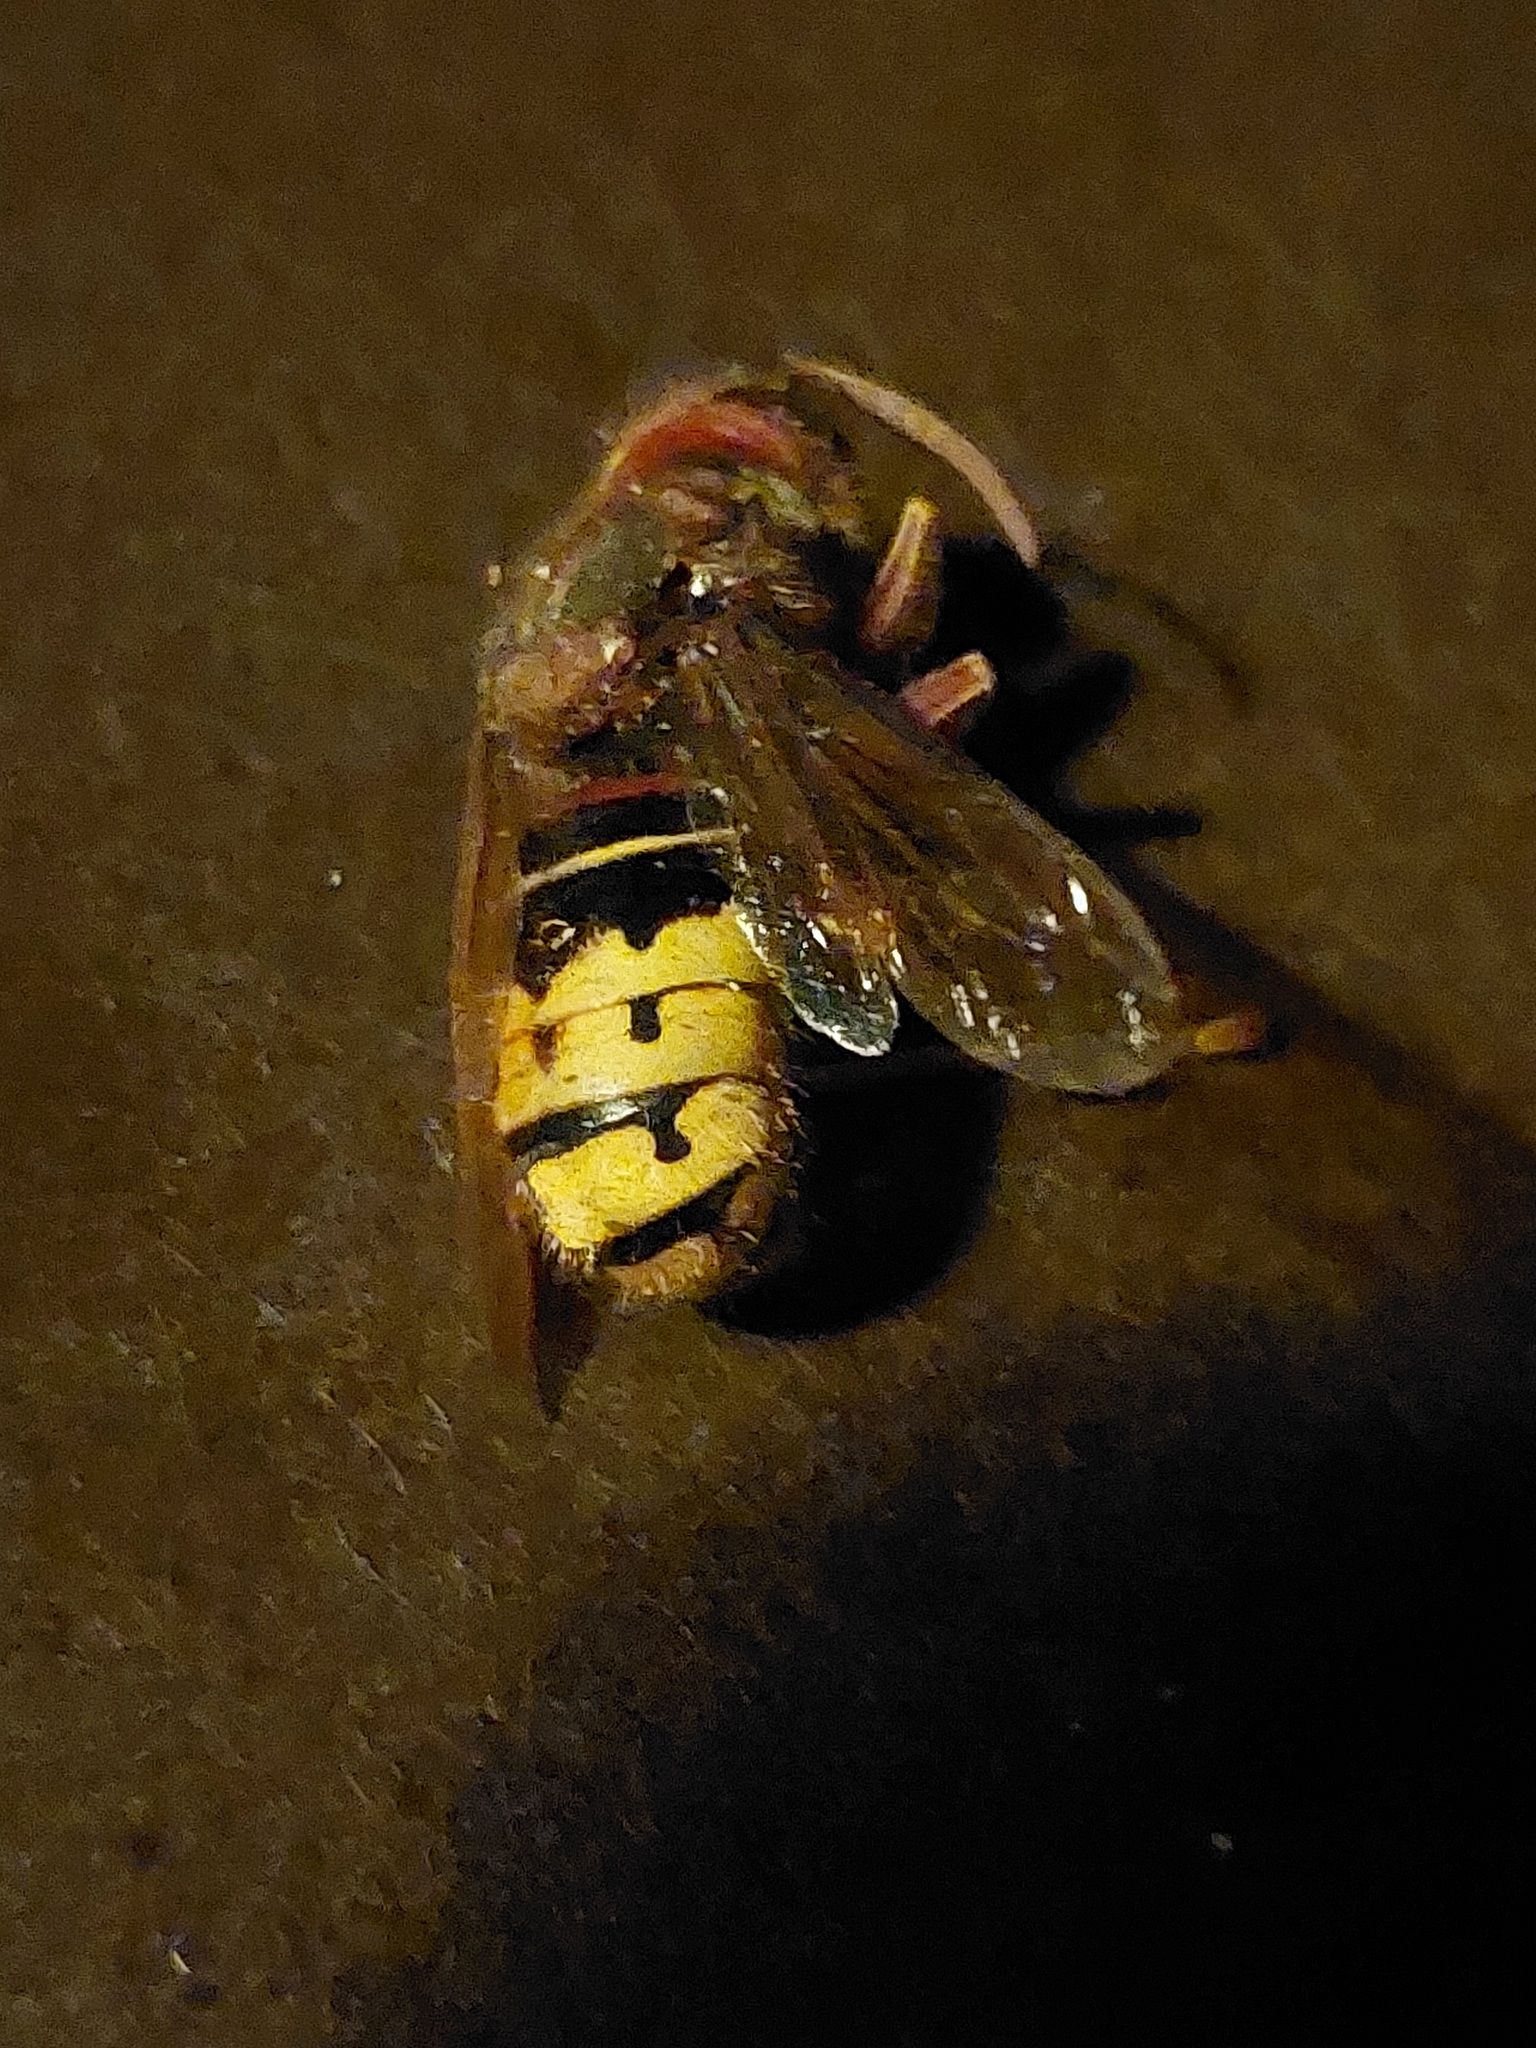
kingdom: Animalia
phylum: Arthropoda
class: Insecta
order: Hymenoptera
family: Vespidae
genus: Vespa
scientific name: Vespa crabro
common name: Hornet
